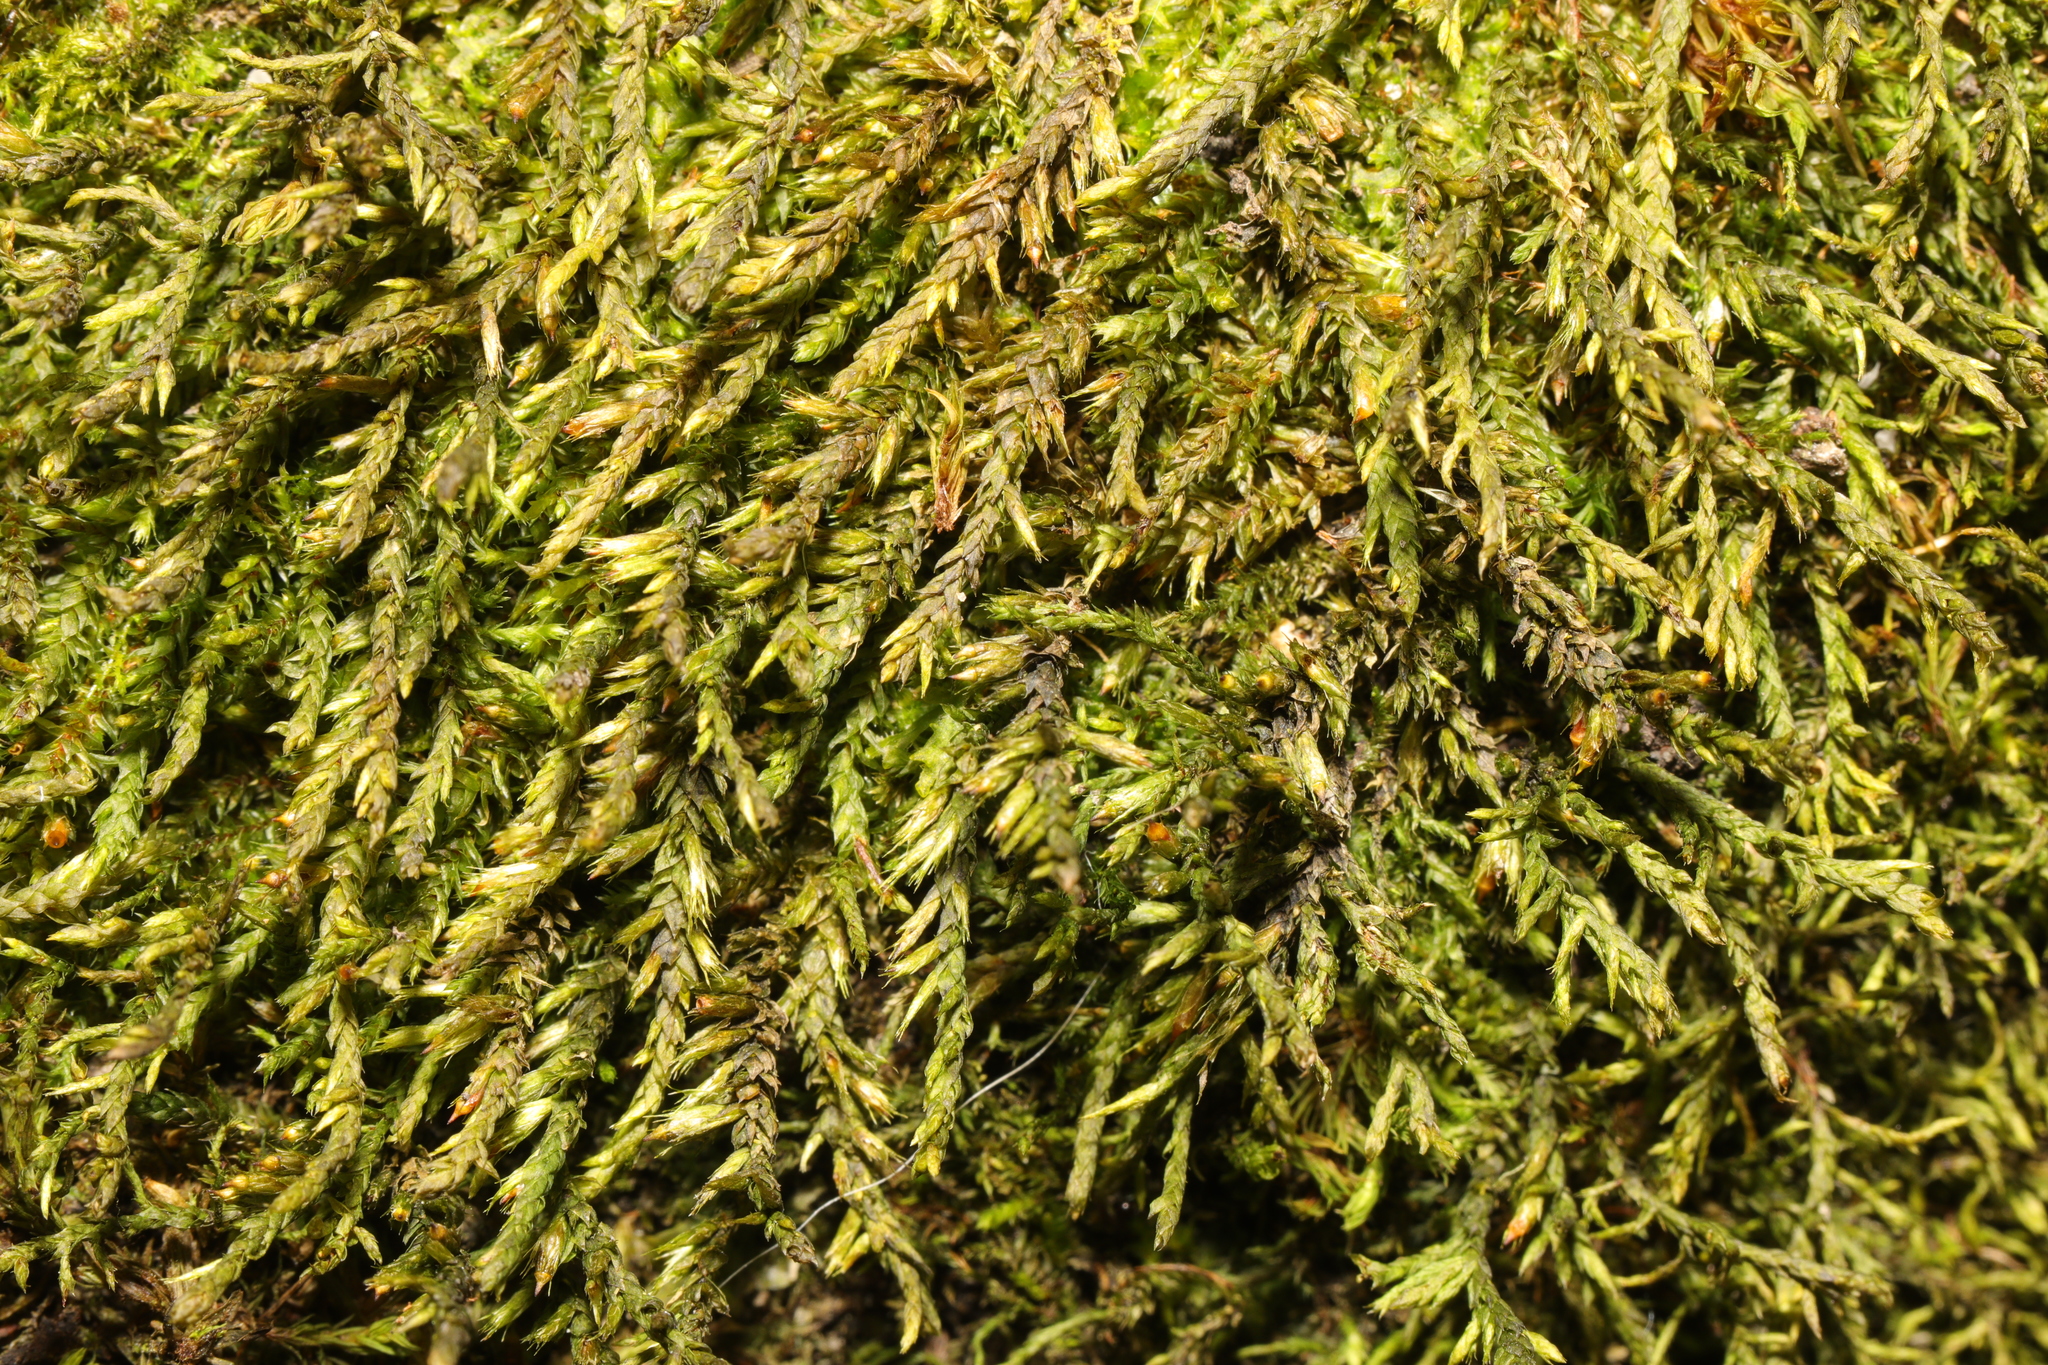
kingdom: Plantae
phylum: Bryophyta
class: Bryopsida
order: Hypnales
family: Cryphaeaceae
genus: Cryphaea
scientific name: Cryphaea heteromalla
